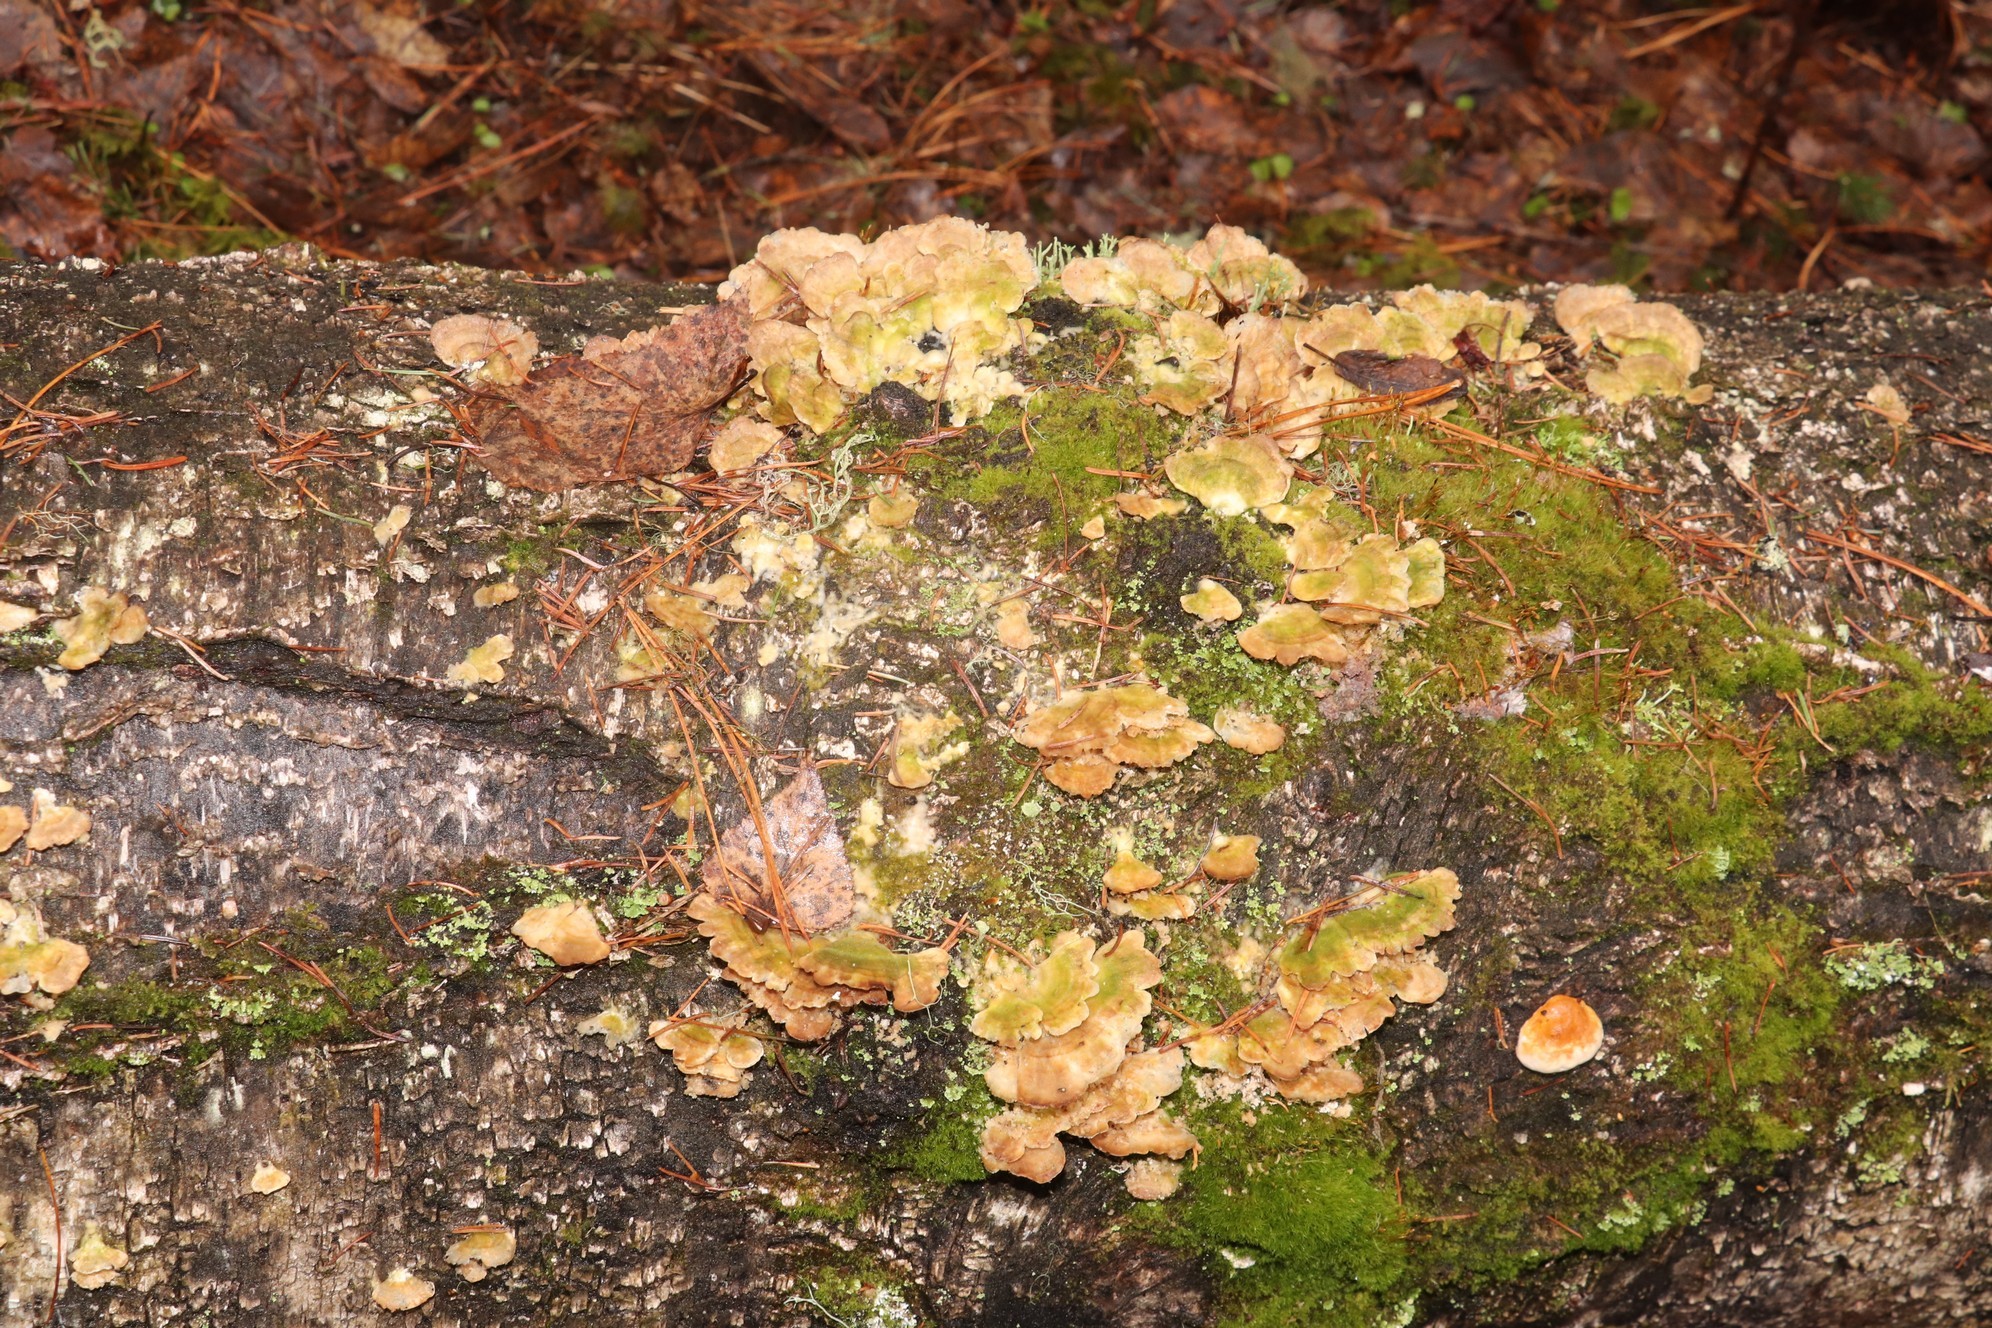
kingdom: Fungi
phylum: Basidiomycota
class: Agaricomycetes
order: Hymenochaetales
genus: Trichaptum
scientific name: Trichaptum biforme
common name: Violet-toothed polypore
